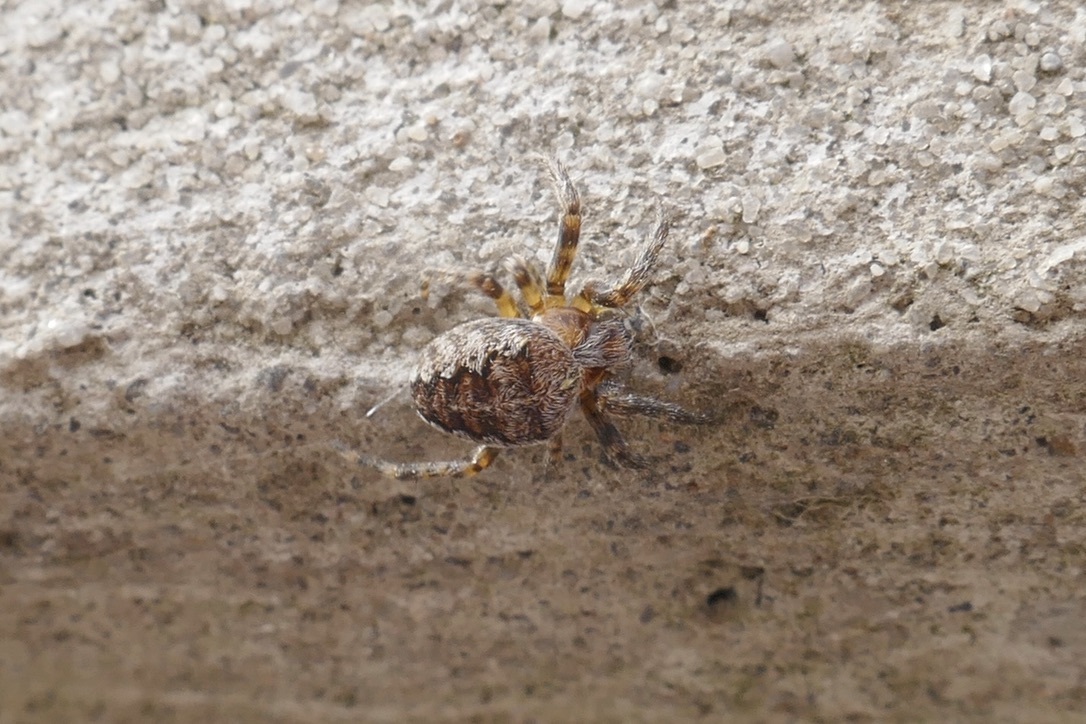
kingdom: Animalia
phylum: Arthropoda
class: Arachnida
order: Araneae
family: Araneidae
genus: Araneus
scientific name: Araneus diadematus
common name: Cross orbweaver
